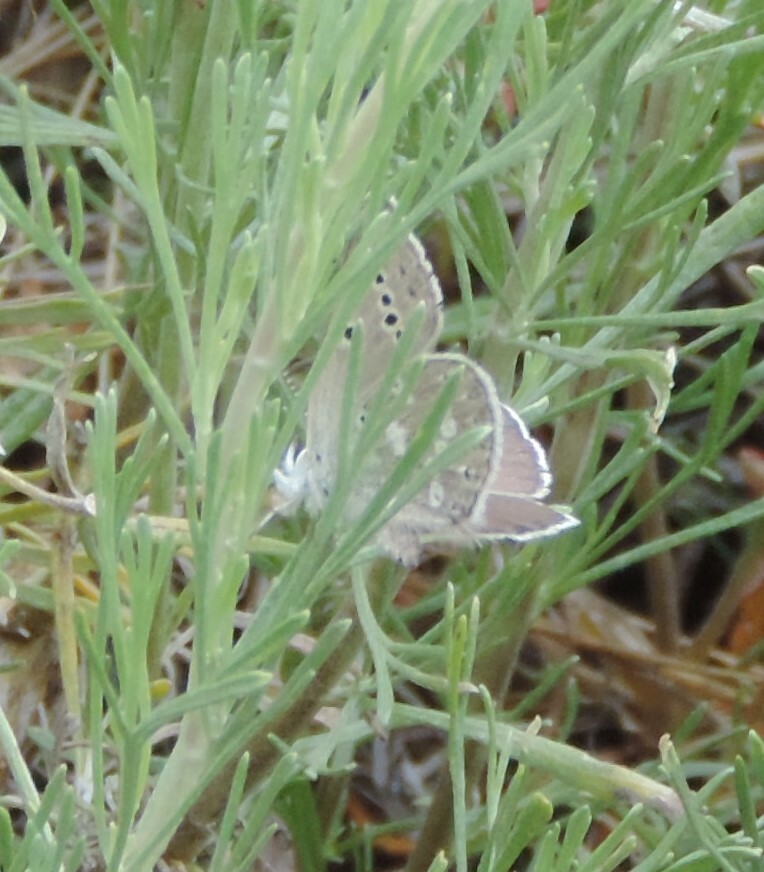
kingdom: Animalia
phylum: Arthropoda
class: Insecta
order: Lepidoptera
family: Lycaenidae
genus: Icaricia
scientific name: Icaricia icarioides
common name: Boisduval's blue
